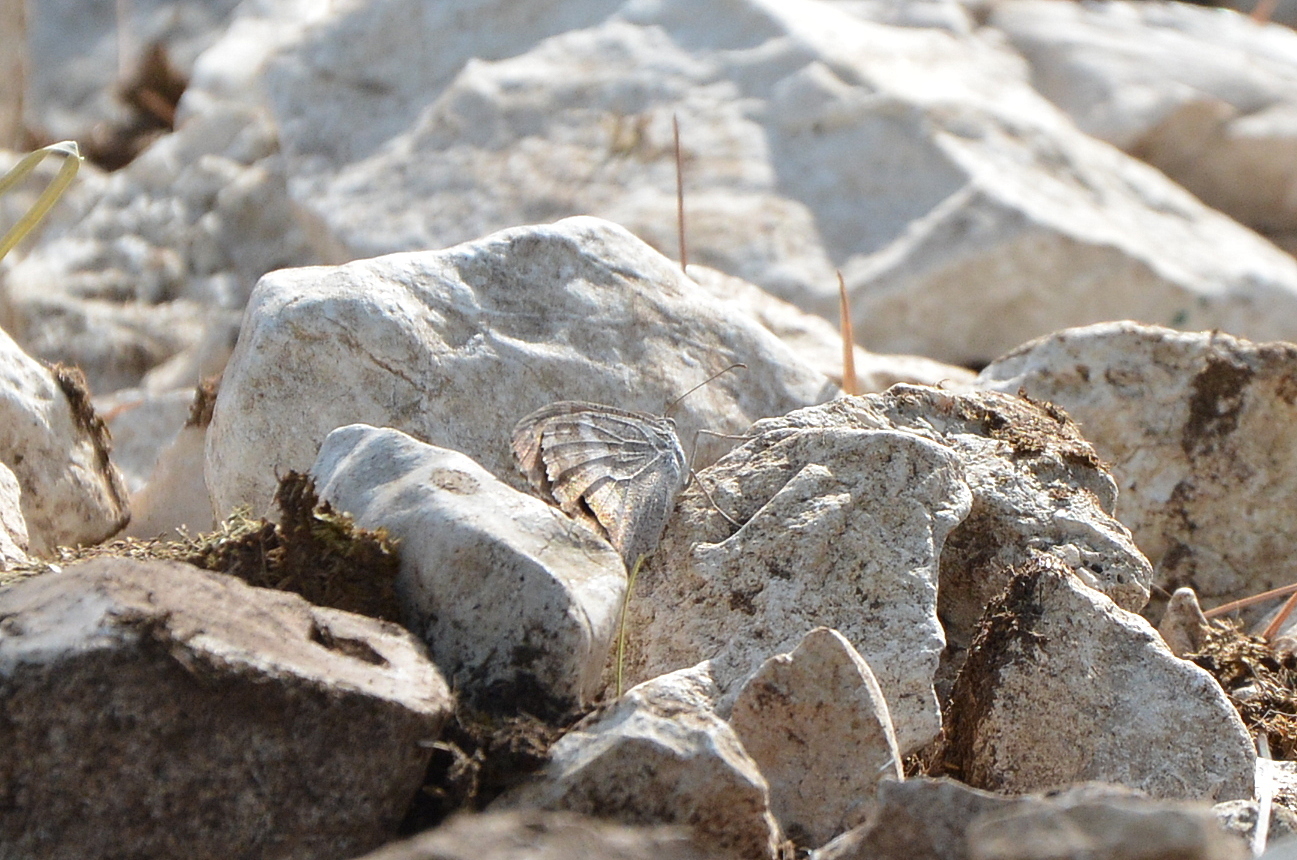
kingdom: Animalia
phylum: Arthropoda
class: Insecta
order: Lepidoptera
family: Nymphalidae
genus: Hipparchia
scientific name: Hipparchia statilinus
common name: Tree grayling
